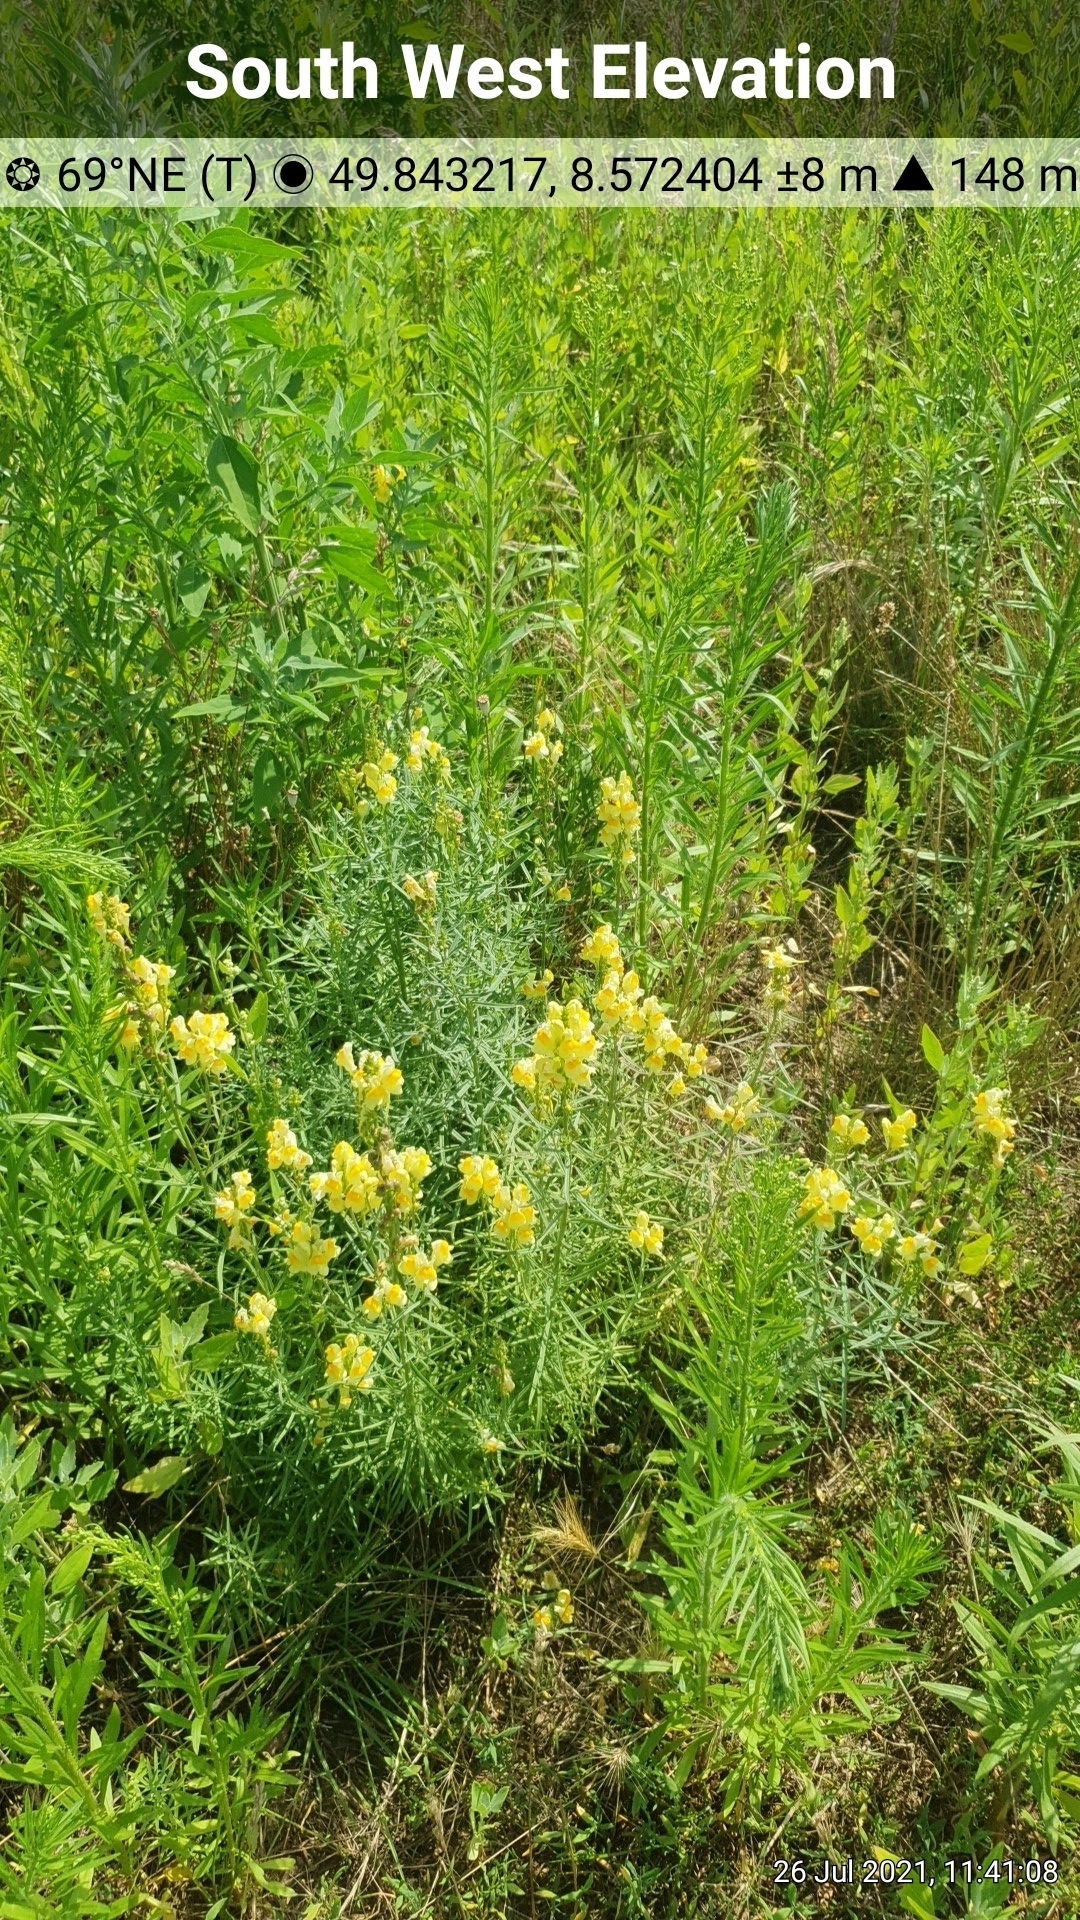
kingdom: Plantae
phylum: Tracheophyta
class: Magnoliopsida
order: Lamiales
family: Plantaginaceae
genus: Linaria
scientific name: Linaria vulgaris
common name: Butter and eggs
